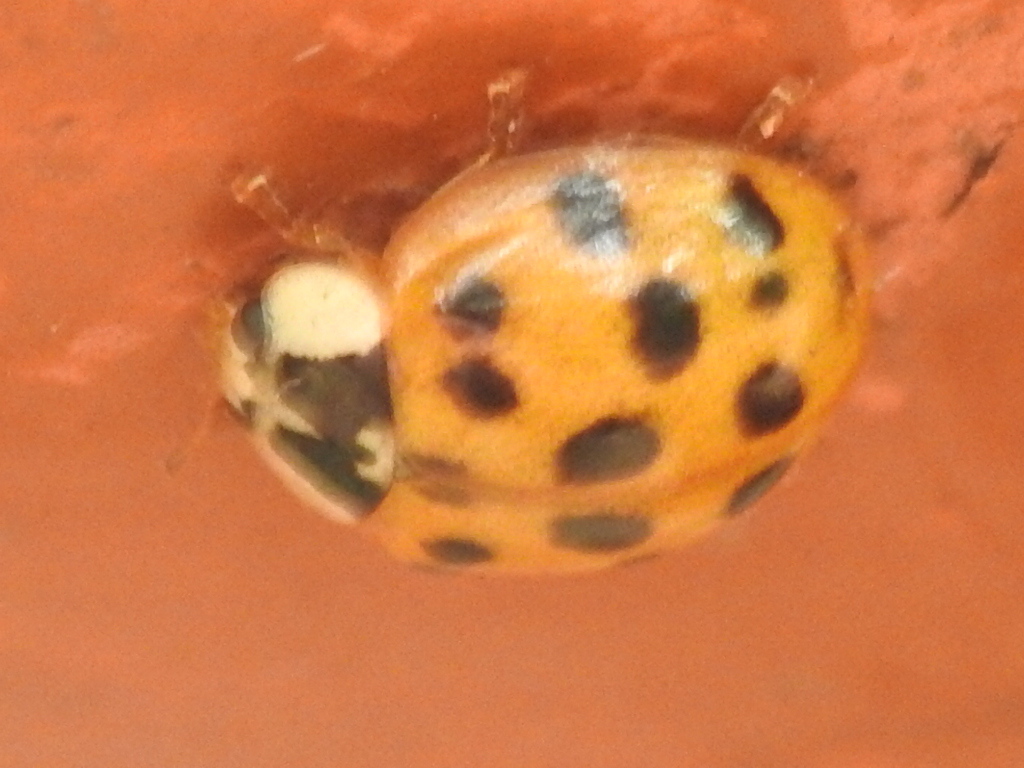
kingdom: Animalia
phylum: Arthropoda
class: Insecta
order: Coleoptera
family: Coccinellidae
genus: Harmonia
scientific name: Harmonia axyridis
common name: Harlequin ladybird
